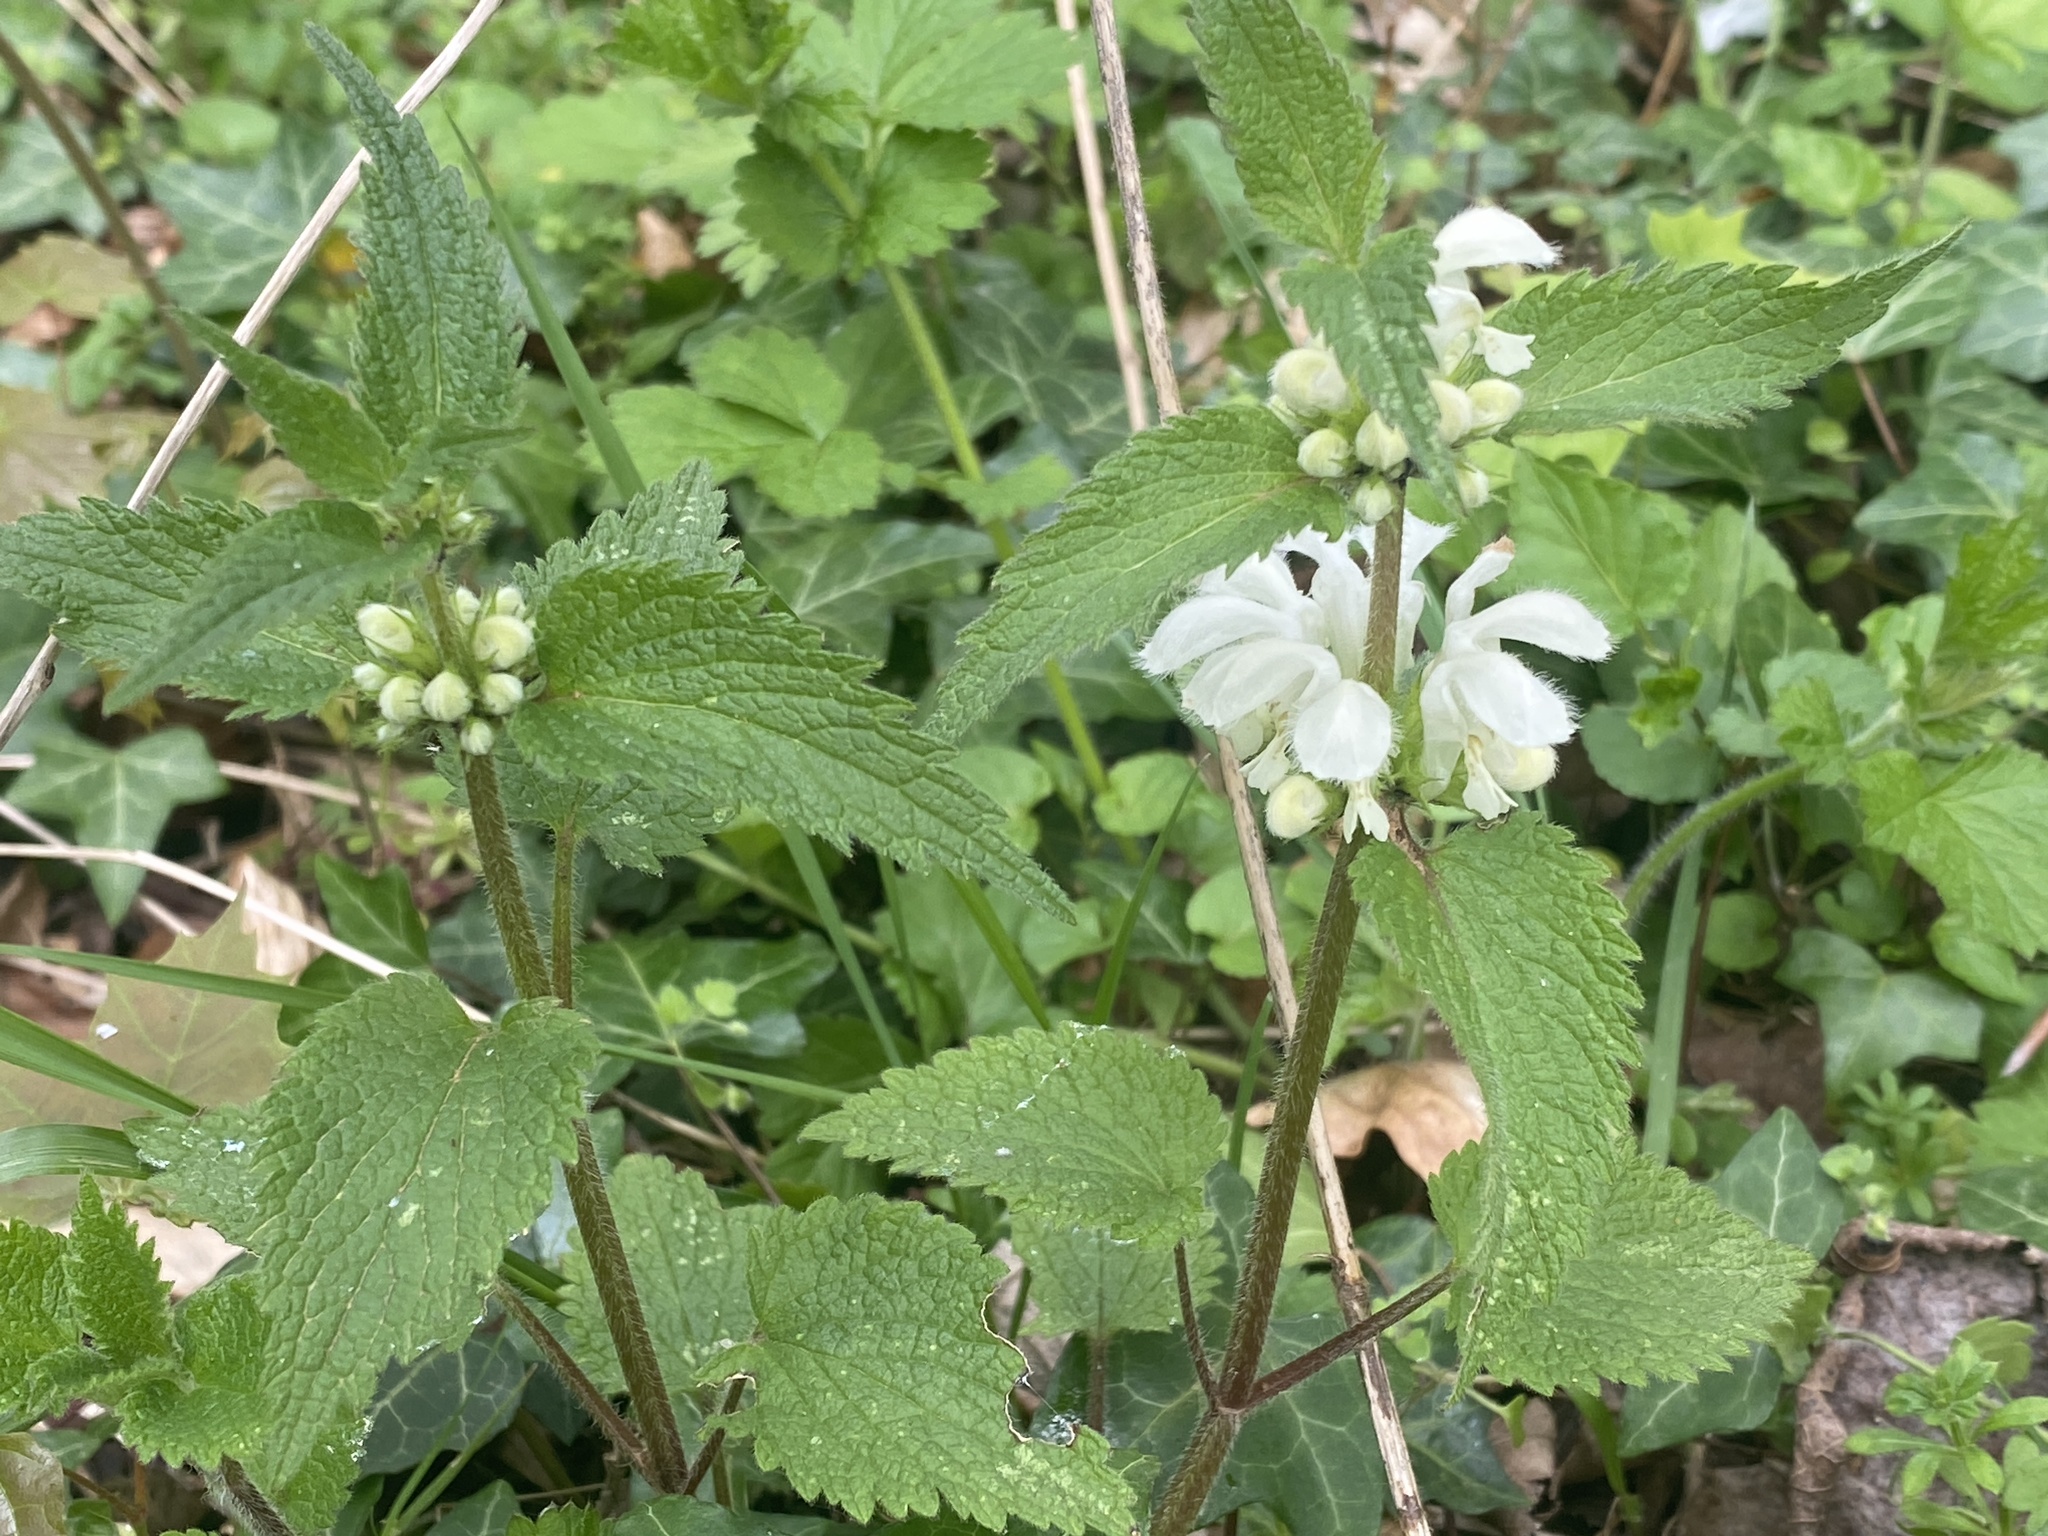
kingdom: Plantae
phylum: Tracheophyta
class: Magnoliopsida
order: Lamiales
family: Lamiaceae
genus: Lamium
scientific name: Lamium album
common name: White dead-nettle
